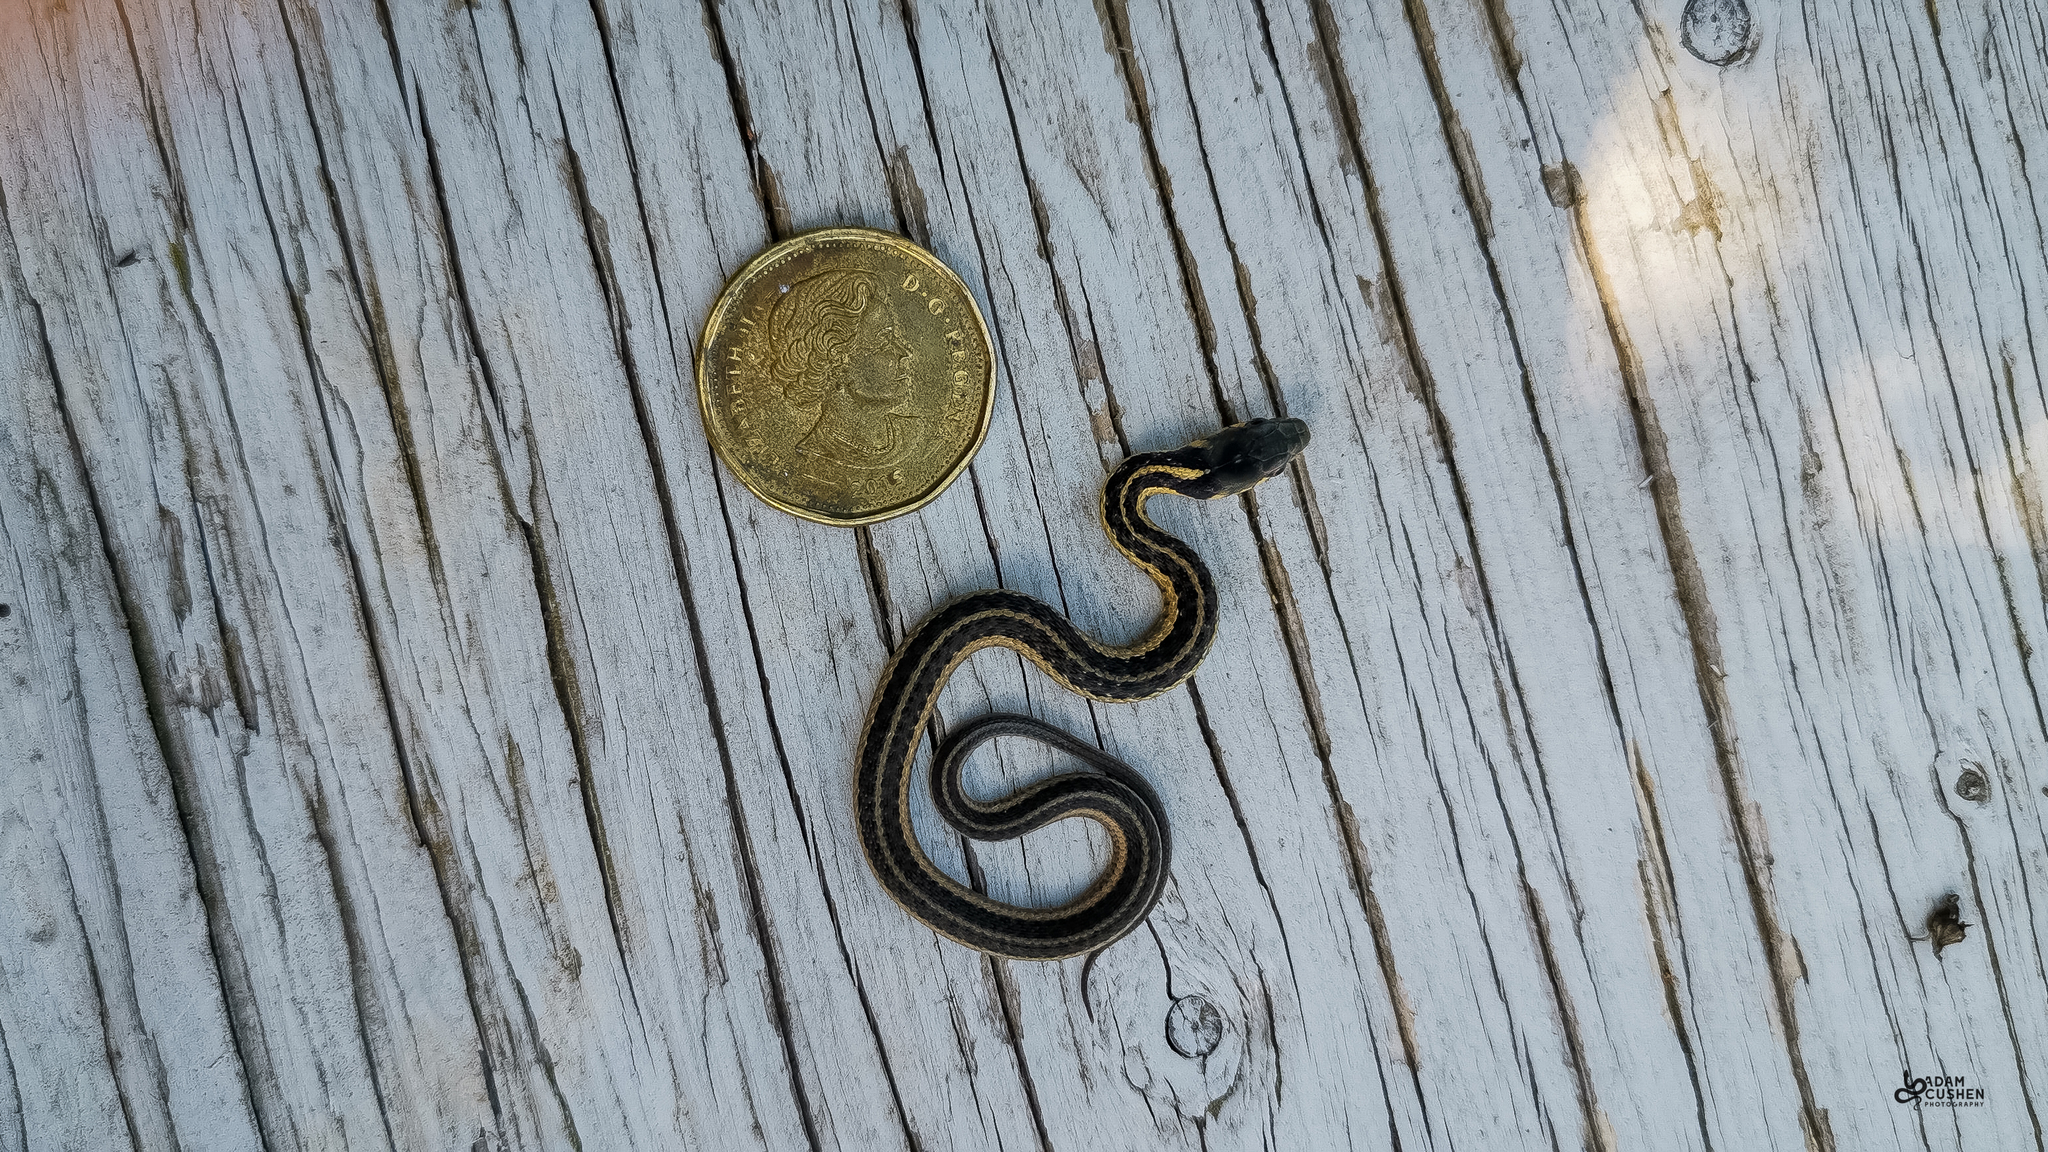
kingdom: Animalia
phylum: Chordata
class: Squamata
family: Colubridae
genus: Thamnophis
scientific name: Thamnophis sirtalis
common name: Common garter snake
